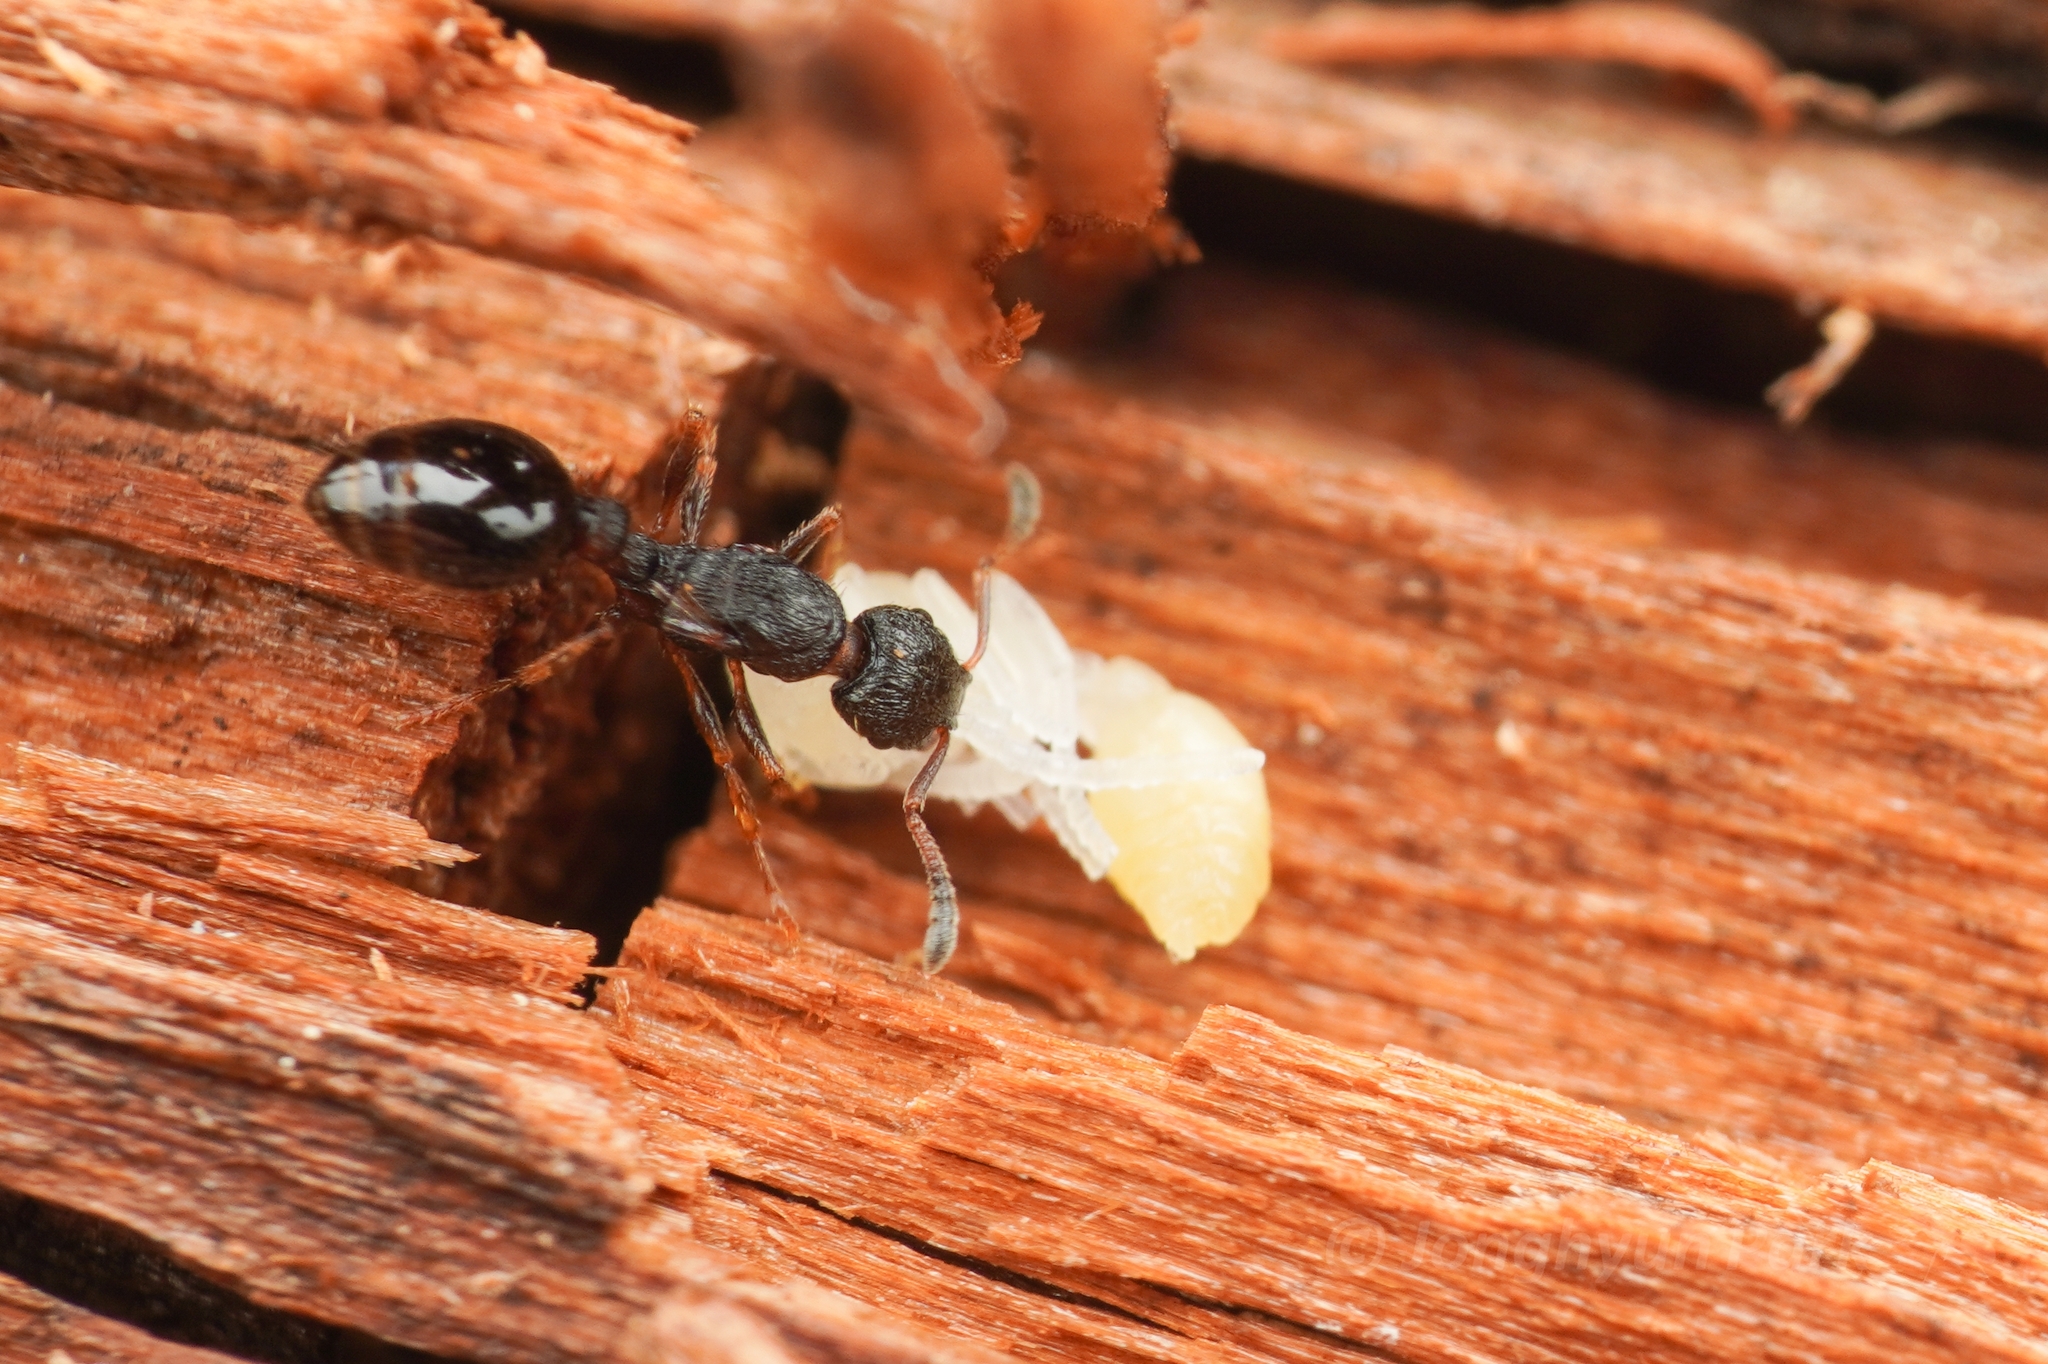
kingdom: Animalia
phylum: Arthropoda
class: Insecta
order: Hymenoptera
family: Formicidae
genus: Leptothorax
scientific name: Leptothorax acervorum
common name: Slender ant
